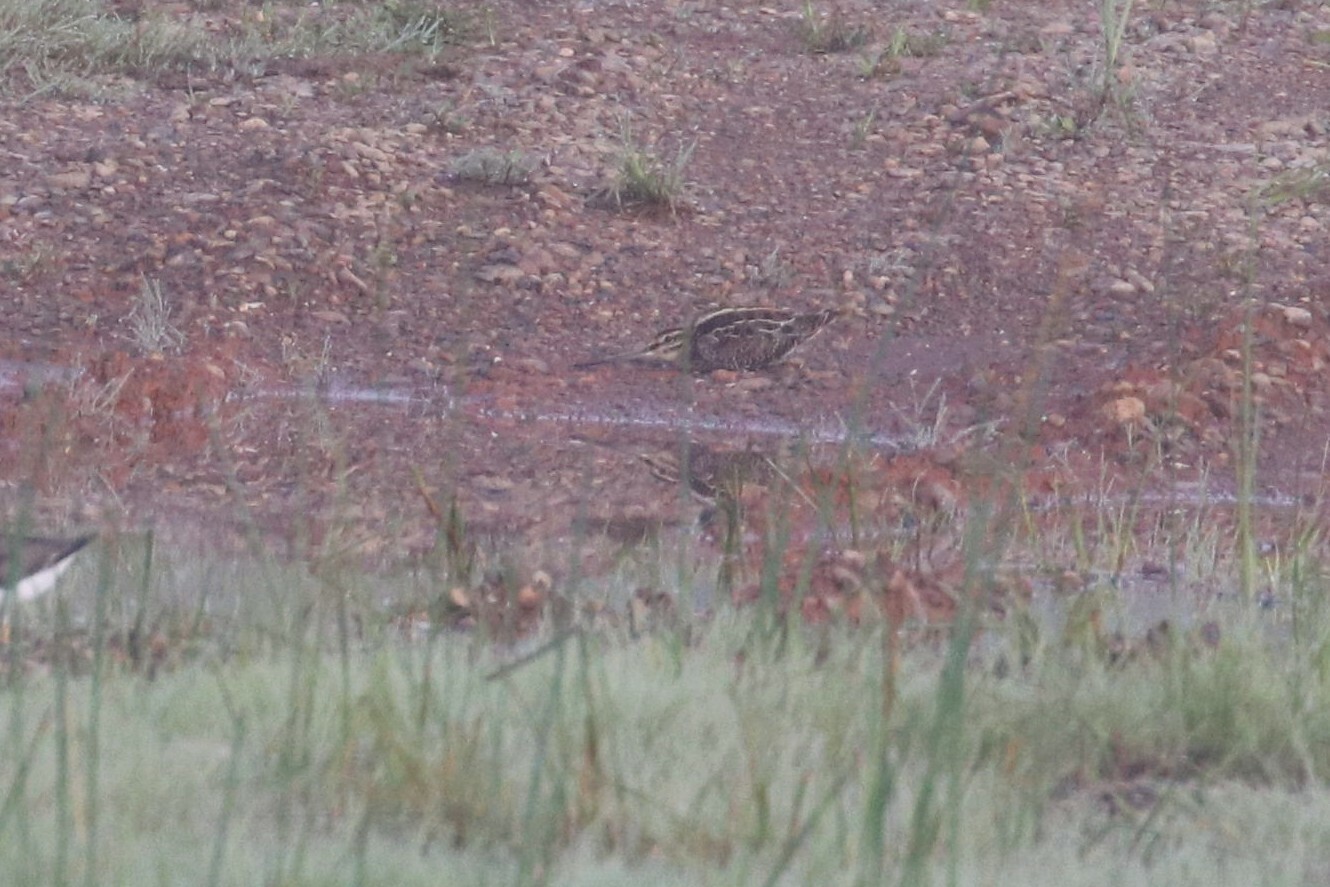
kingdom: Animalia
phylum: Chordata
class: Aves
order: Charadriiformes
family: Scolopacidae
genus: Gallinago
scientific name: Gallinago gallinago
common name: Common snipe
